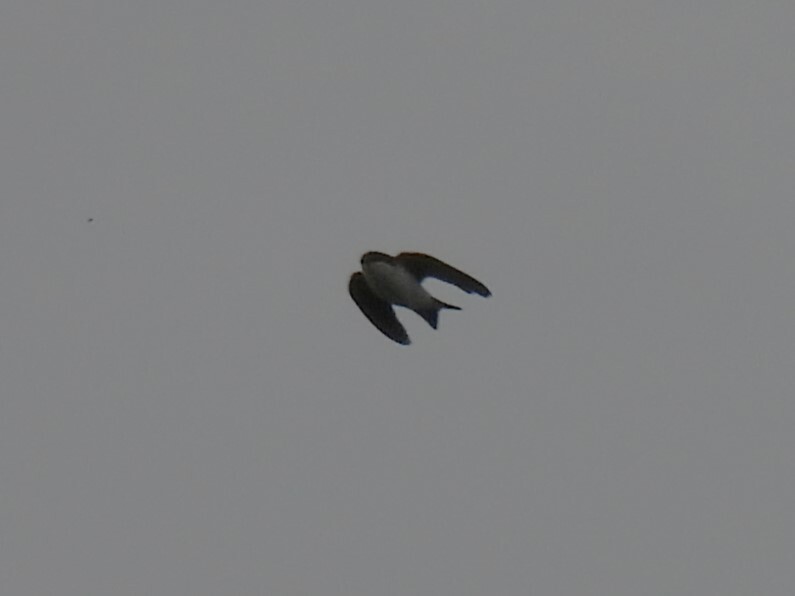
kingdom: Animalia
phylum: Chordata
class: Aves
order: Passeriformes
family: Hirundinidae
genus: Delichon
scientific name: Delichon urbicum
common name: Common house martin
